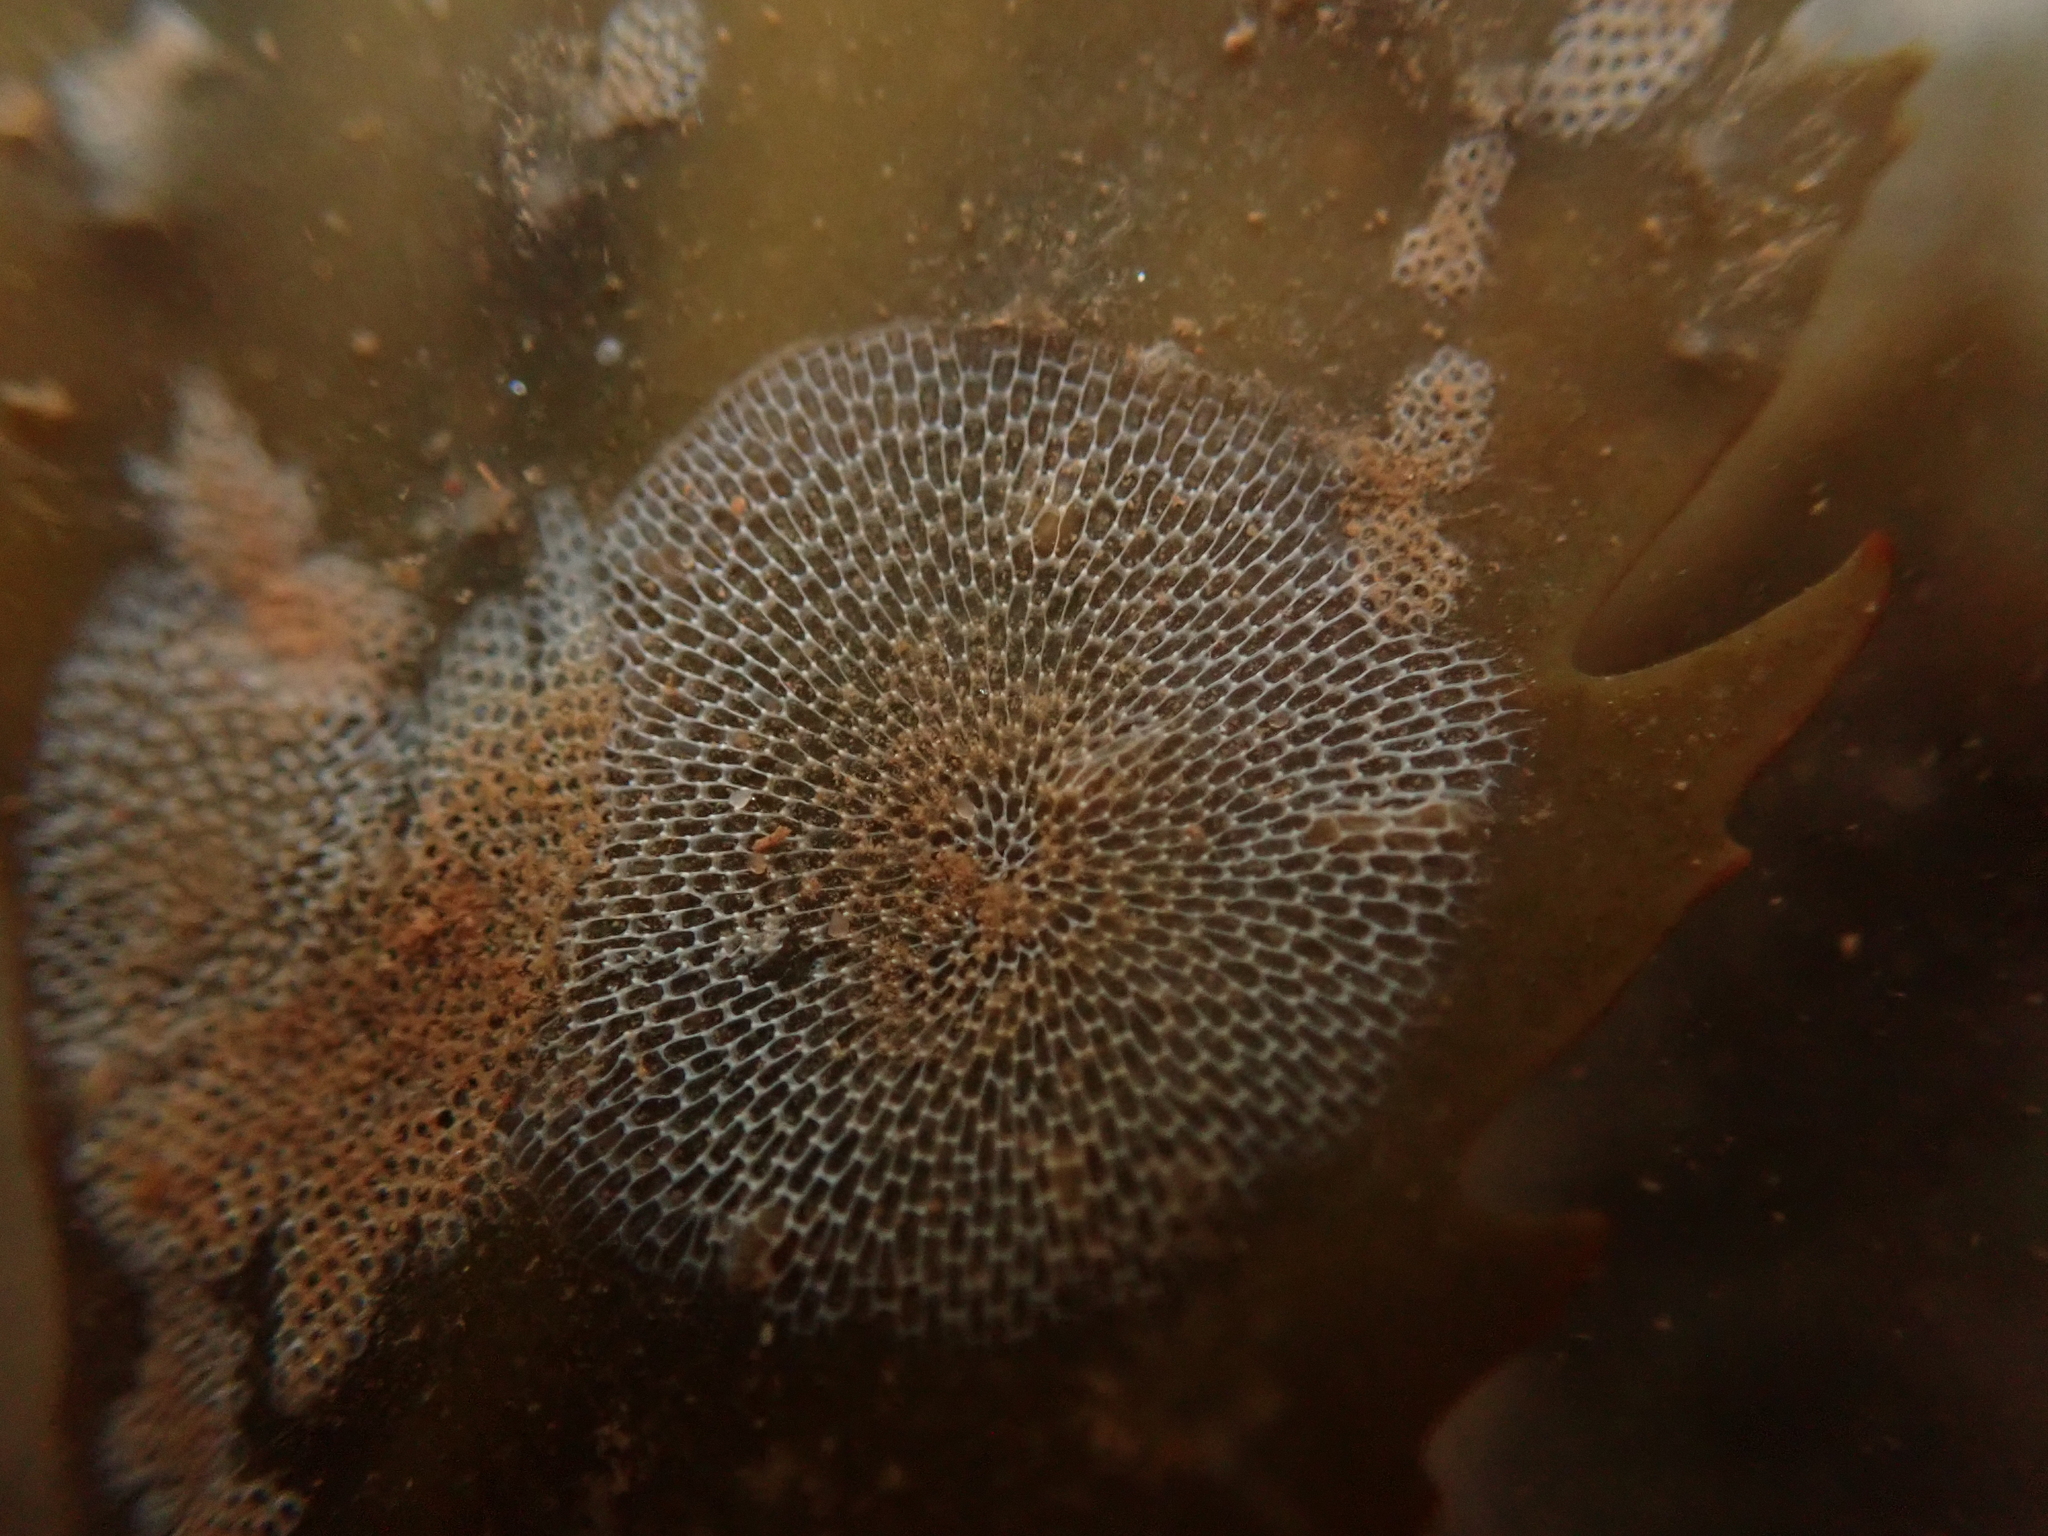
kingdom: Animalia
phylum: Bryozoa
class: Gymnolaemata
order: Cheilostomatida
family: Membraniporidae
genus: Membranipora
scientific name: Membranipora membranacea
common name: Sea mat
